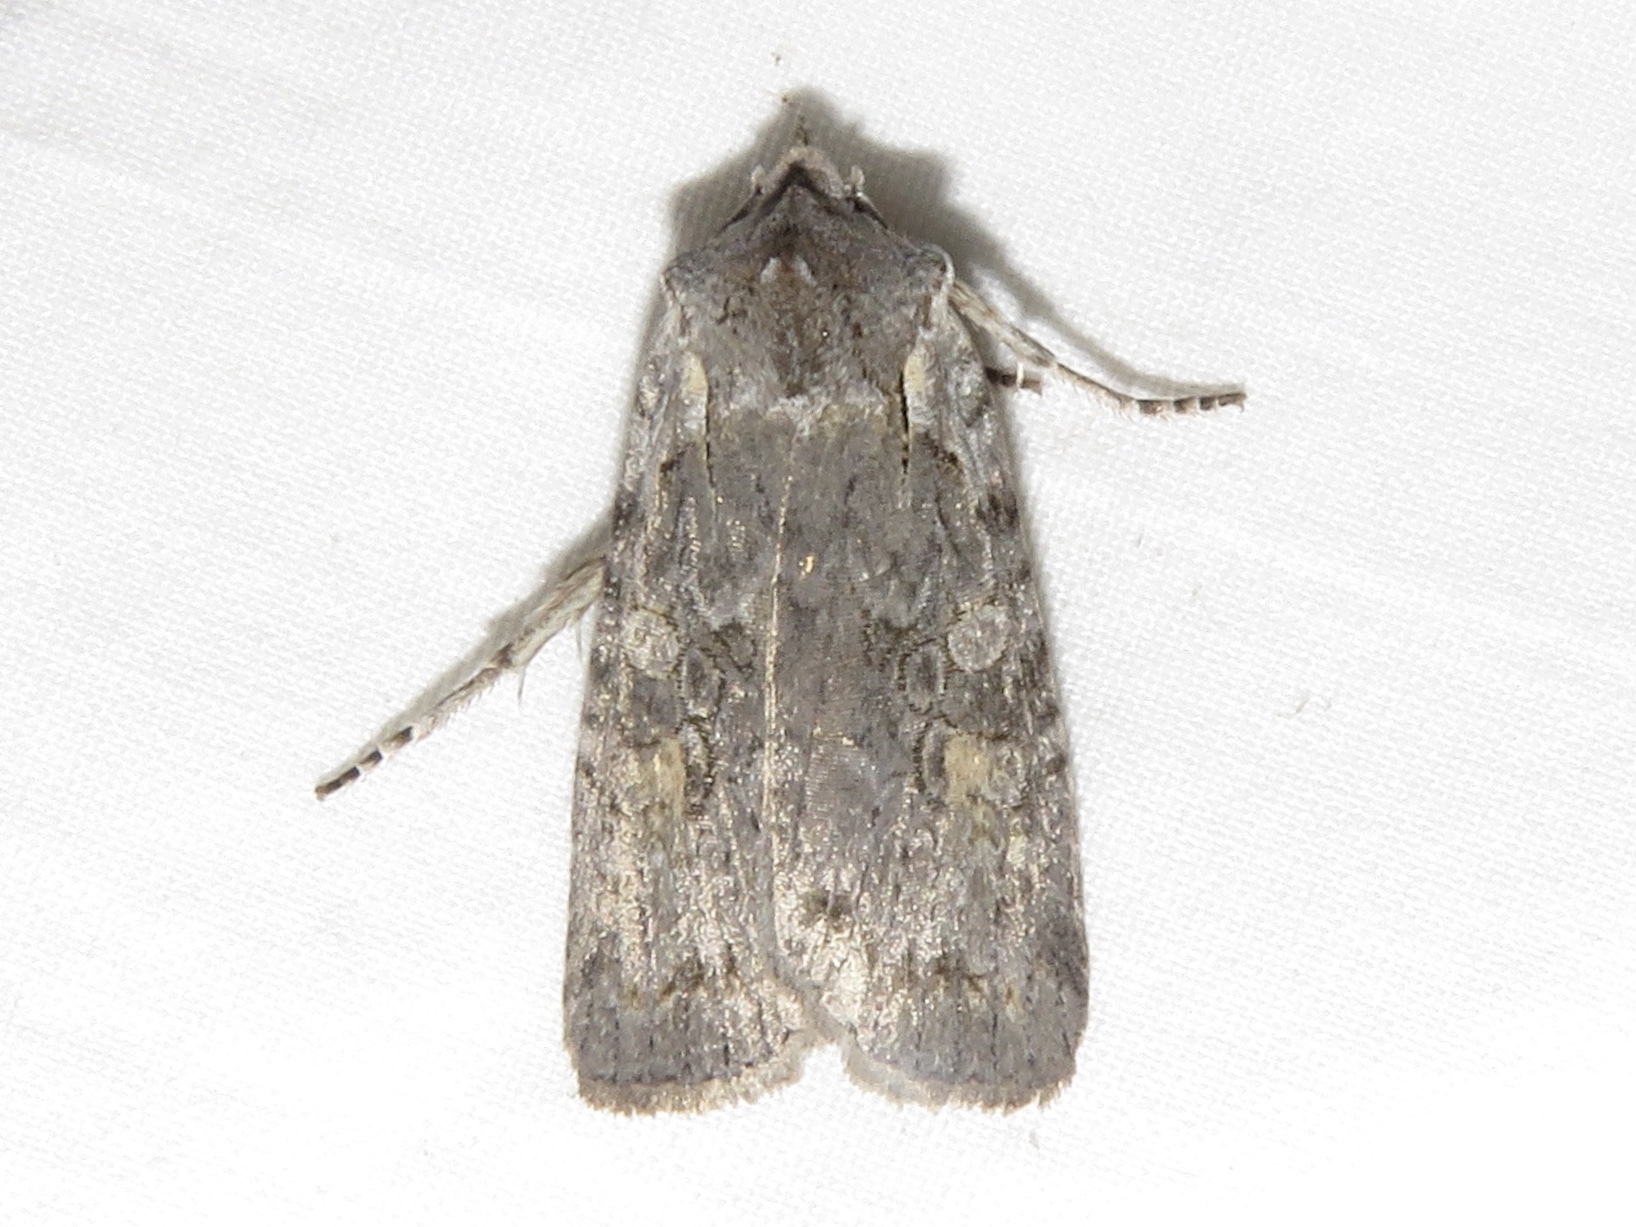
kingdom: Animalia
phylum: Arthropoda
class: Insecta
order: Lepidoptera
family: Noctuidae
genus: Lithophane
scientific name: Lithophane antennata
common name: Ashen pinion
